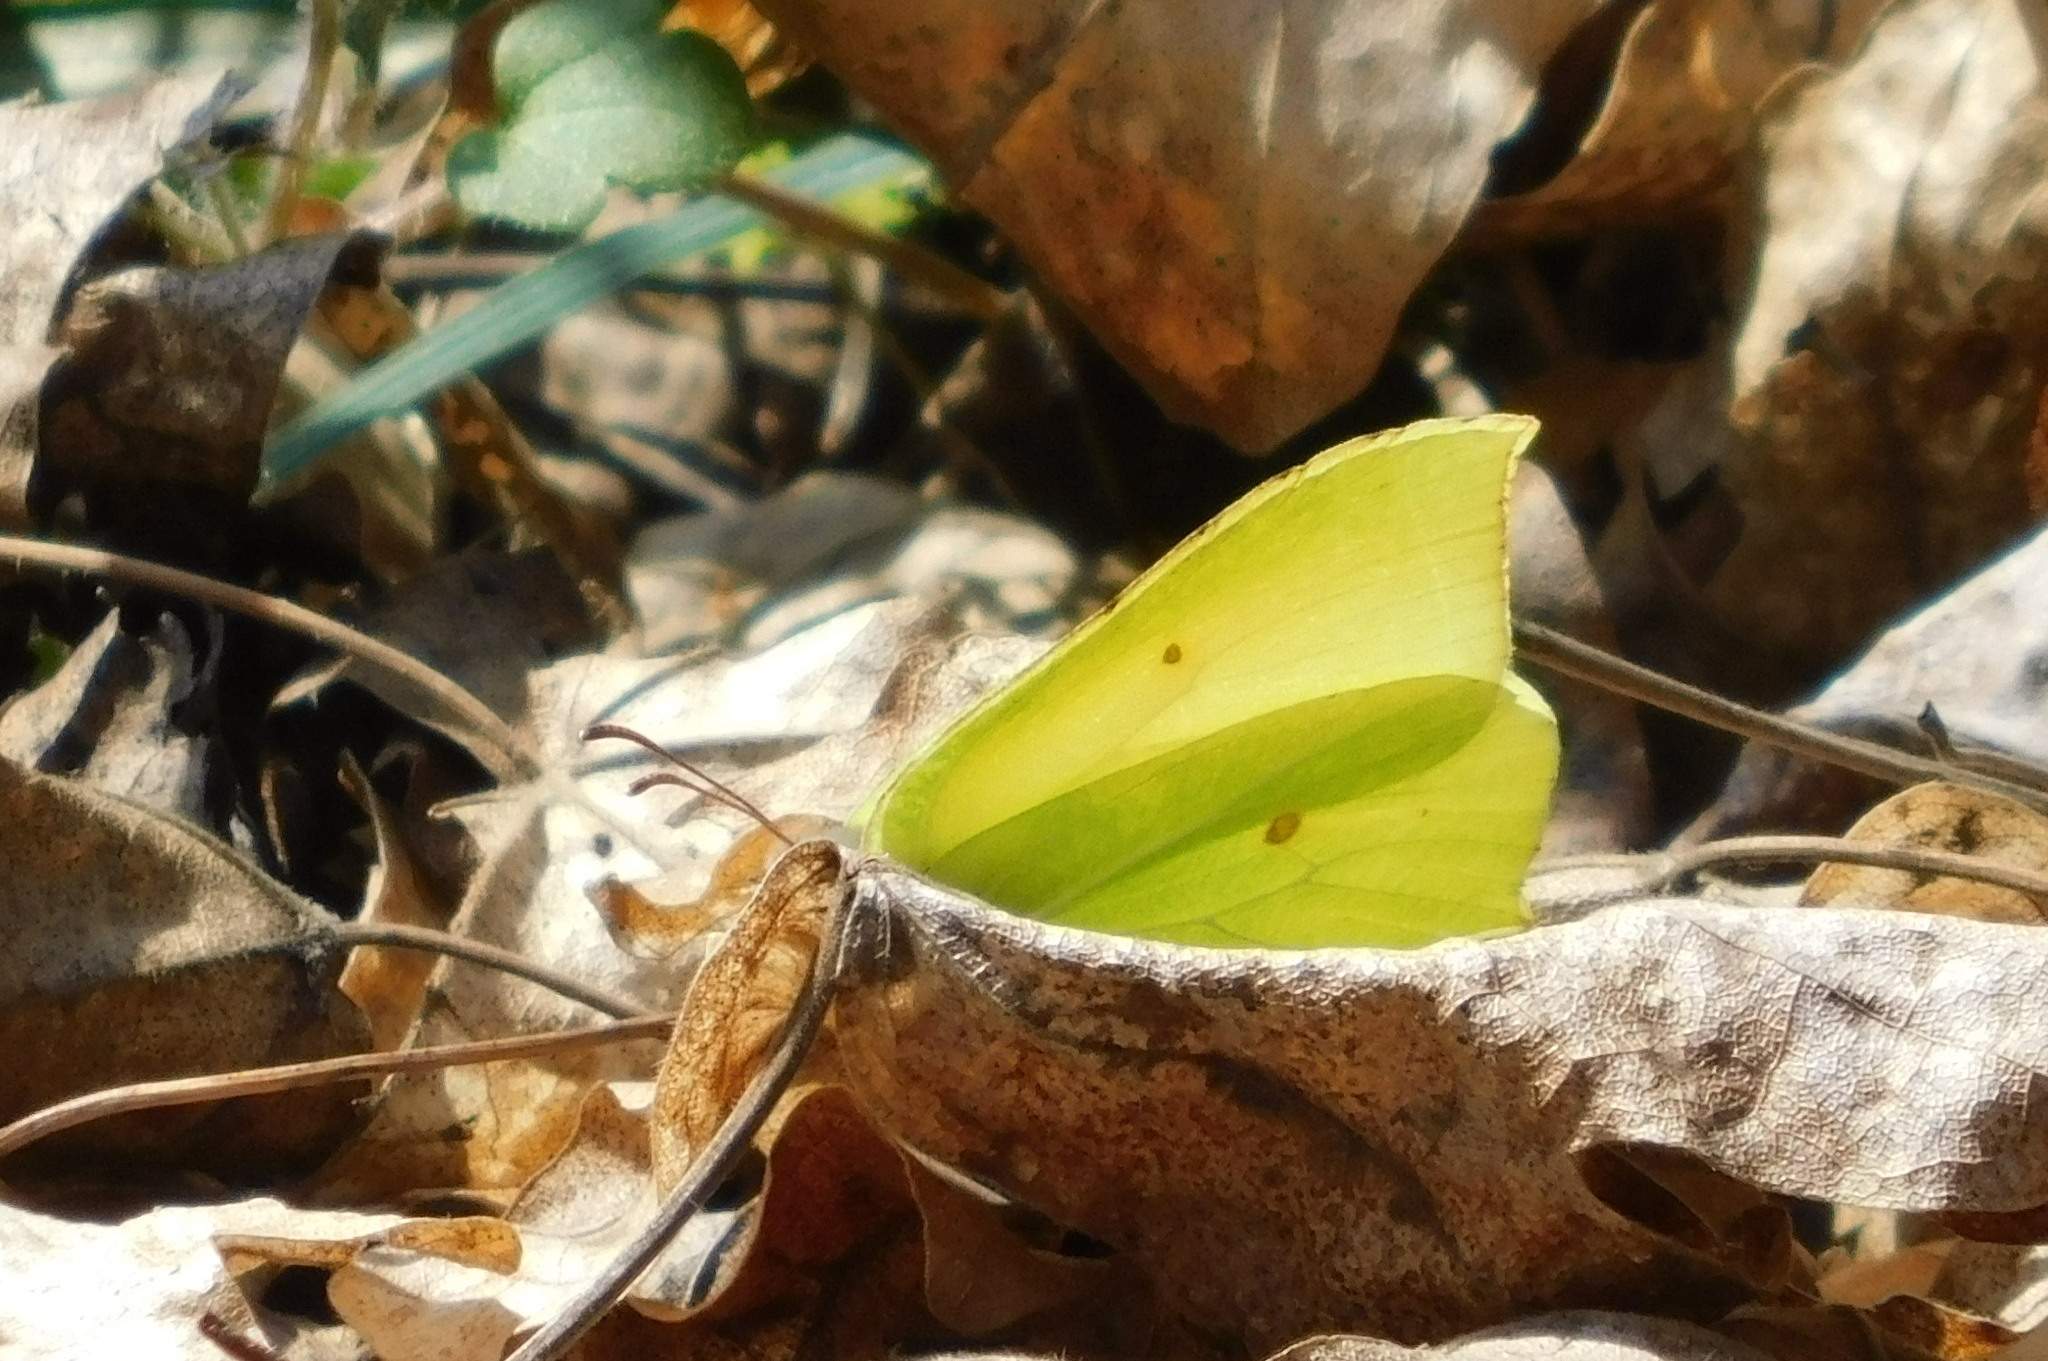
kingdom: Animalia
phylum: Arthropoda
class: Insecta
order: Lepidoptera
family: Pieridae
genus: Gonepteryx
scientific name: Gonepteryx rhamni
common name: Brimstone
